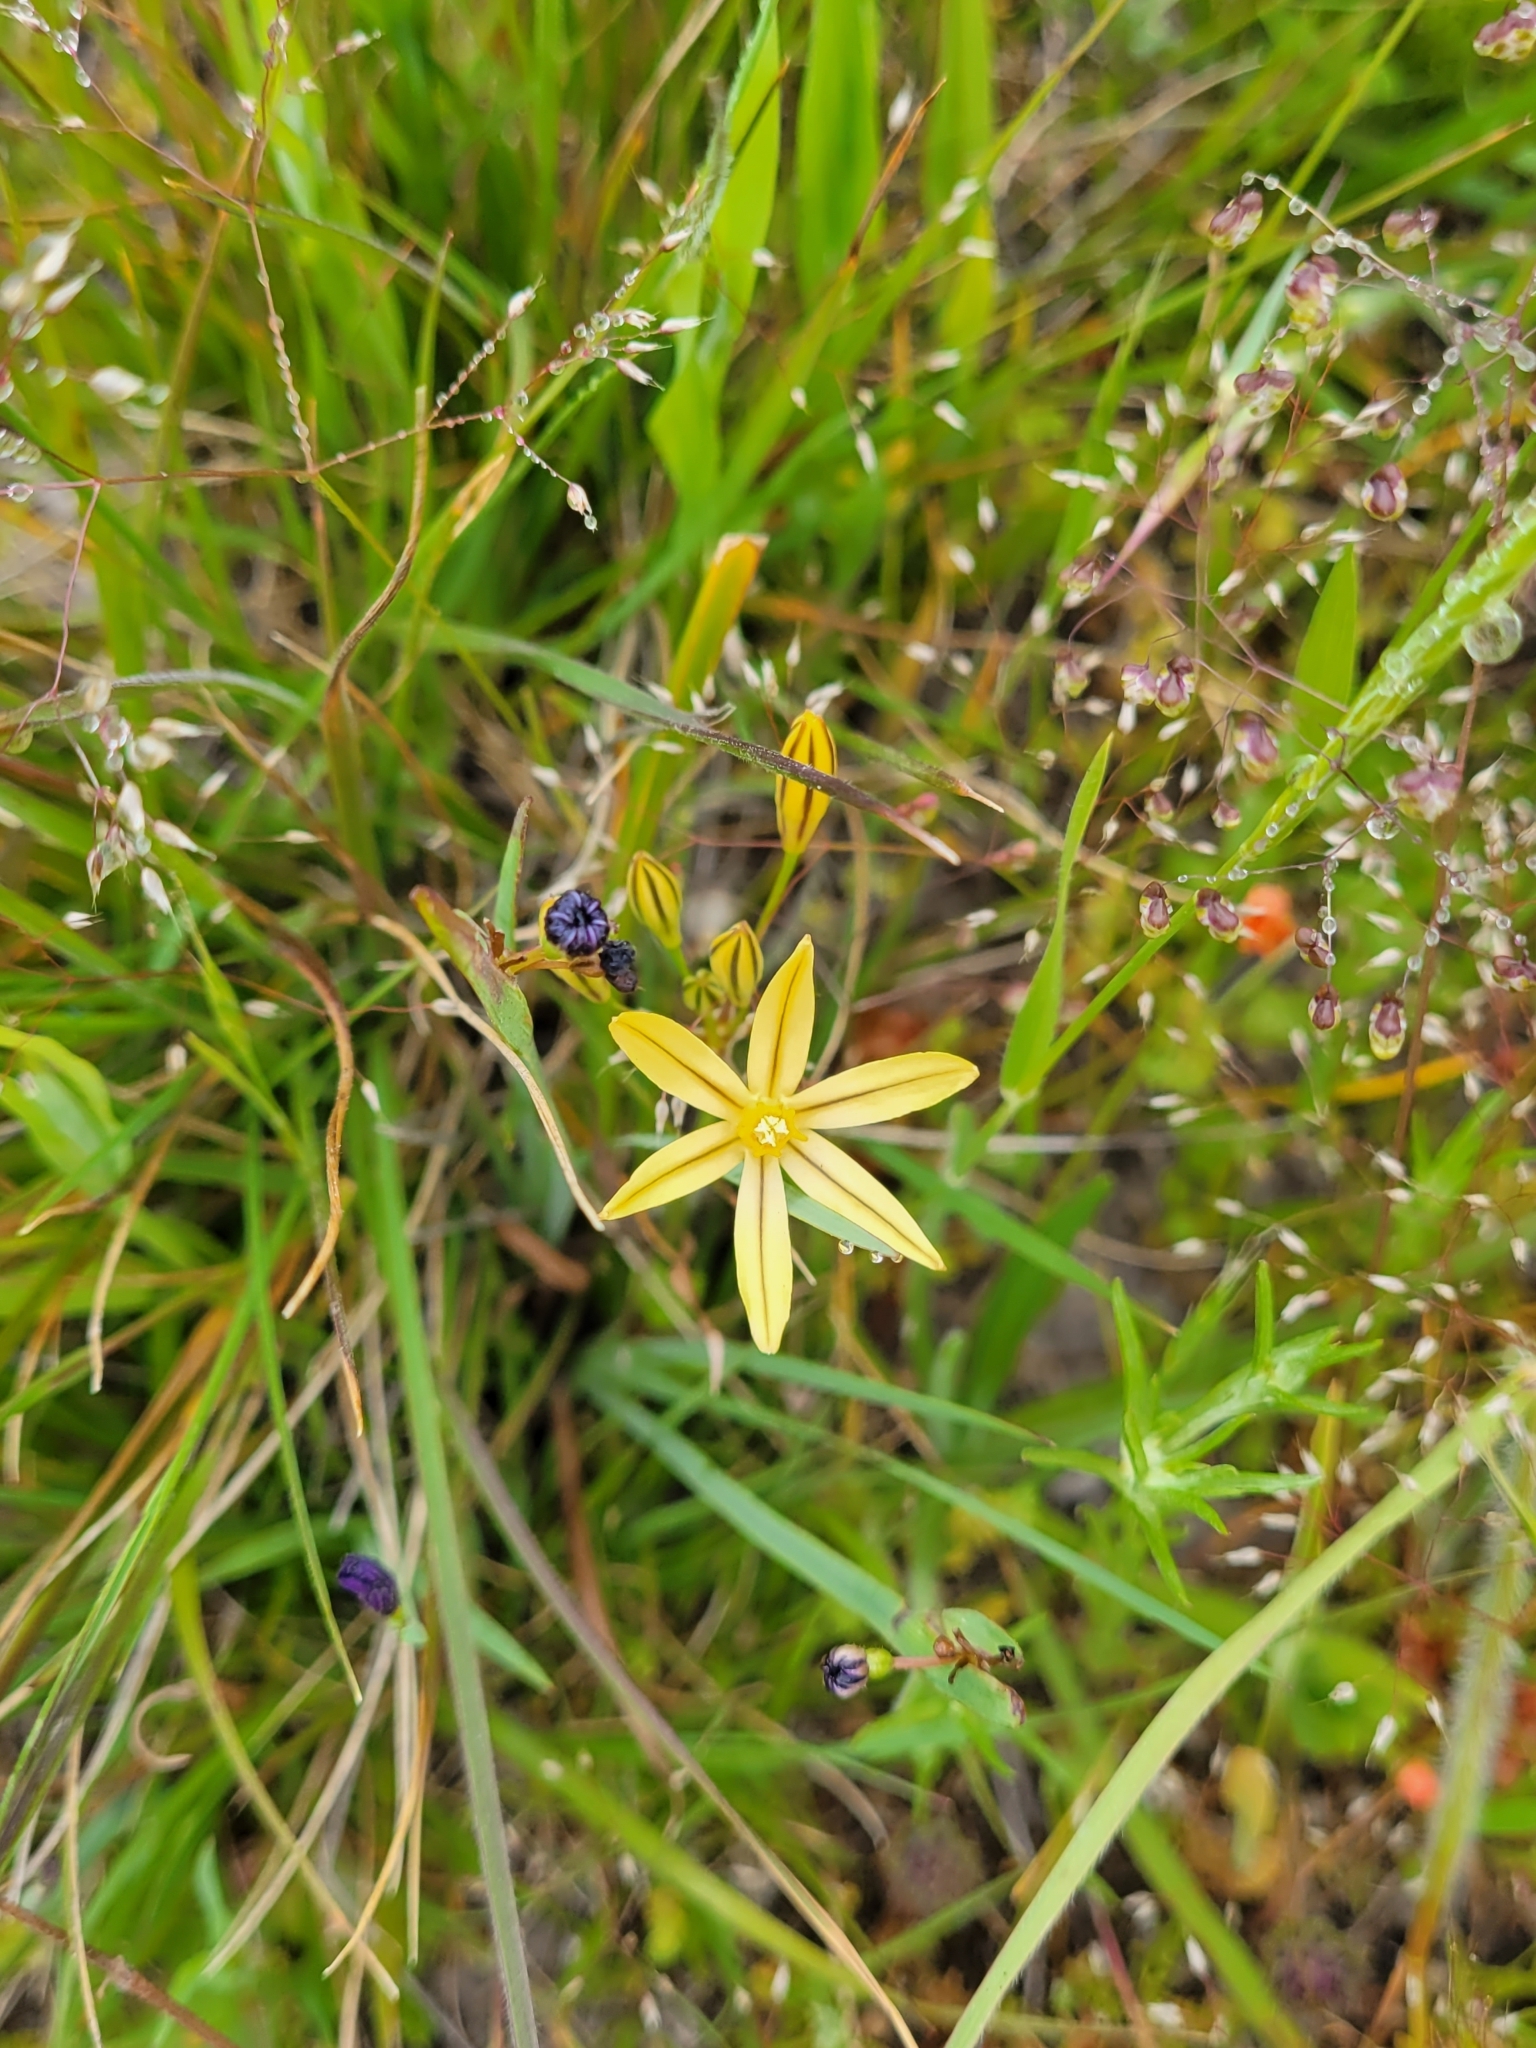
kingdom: Plantae
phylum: Tracheophyta
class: Liliopsida
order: Asparagales
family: Asparagaceae
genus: Triteleia
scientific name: Triteleia ixioides
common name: Yellow-brodiaea
